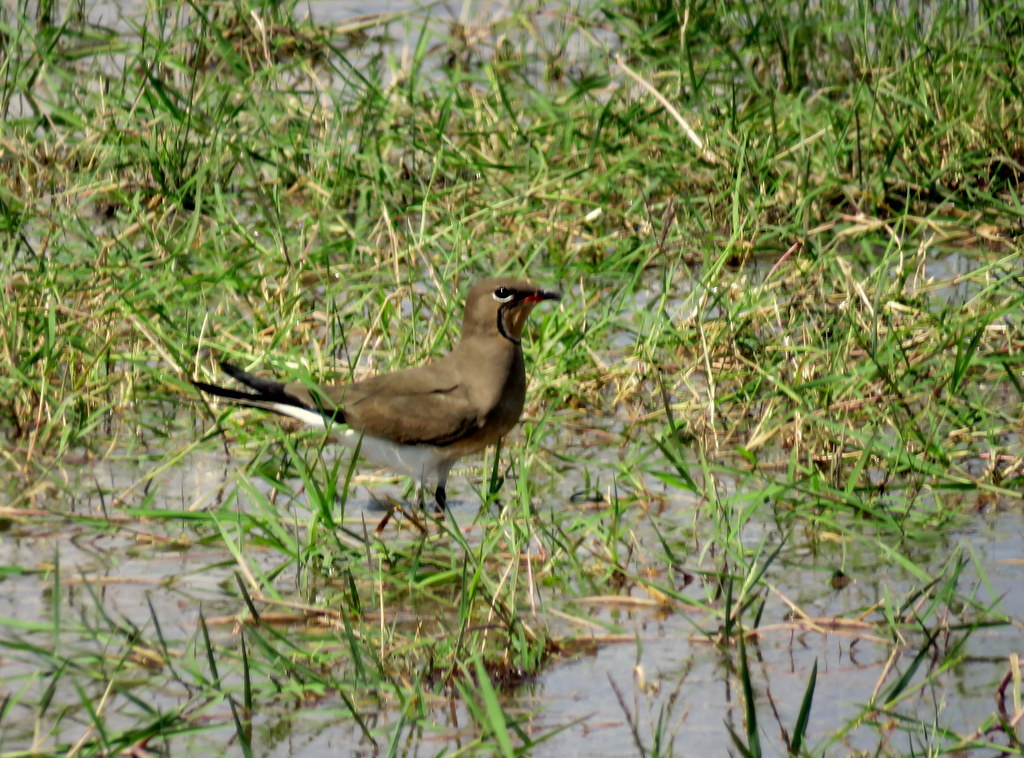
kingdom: Animalia
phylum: Chordata
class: Aves
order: Charadriiformes
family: Glareolidae
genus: Glareola
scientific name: Glareola pratincola
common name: Collared pratincole
